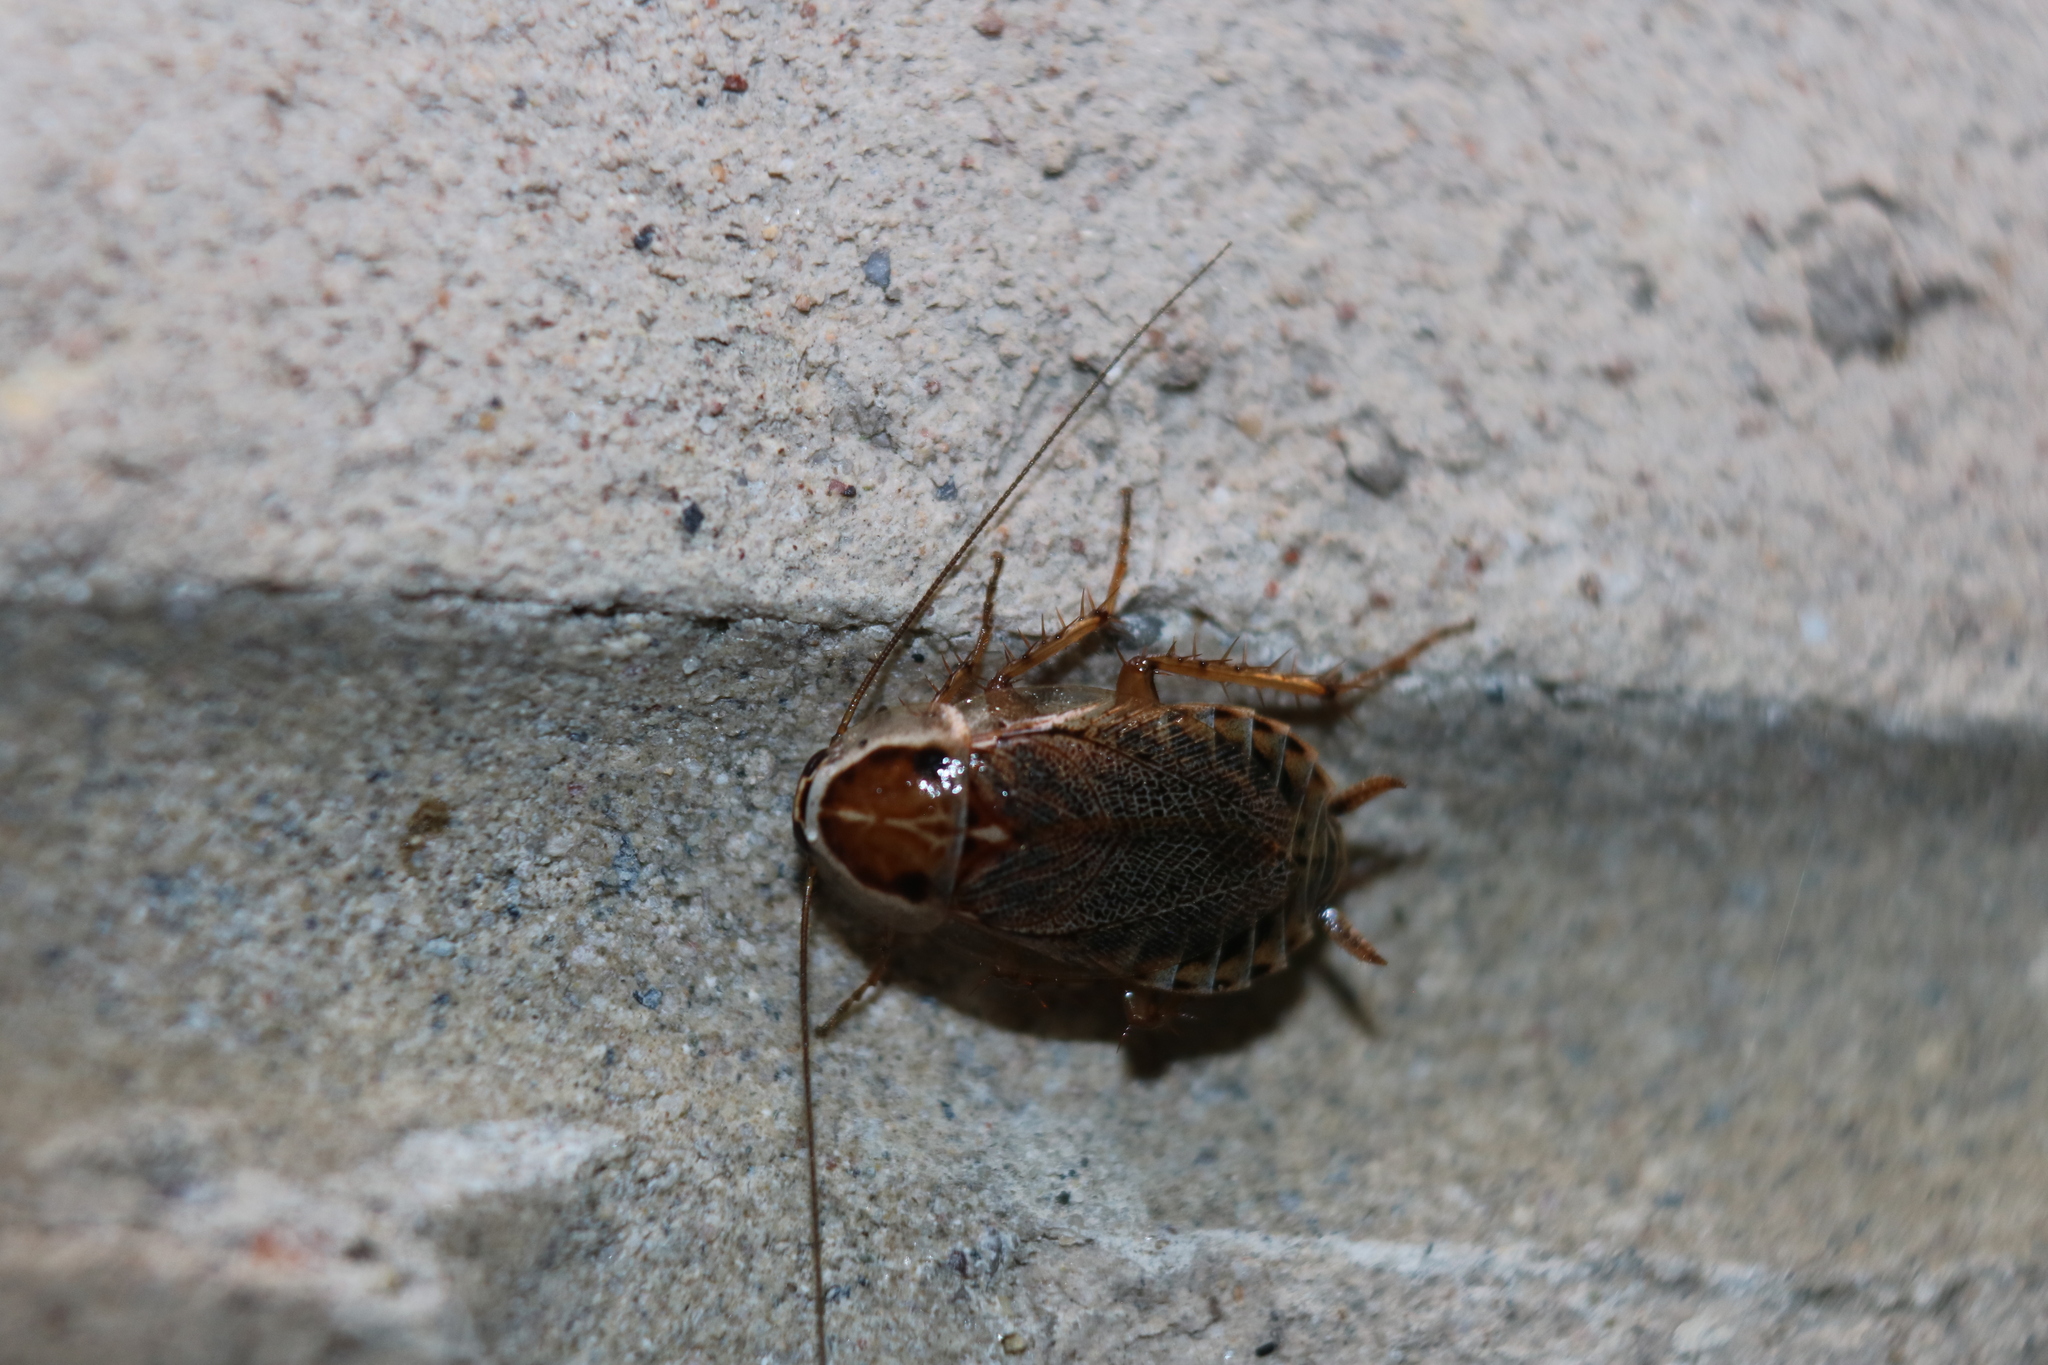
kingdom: Animalia
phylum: Arthropoda
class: Insecta
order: Blattodea
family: Ectobiidae
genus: Ectobius
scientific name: Ectobius lucidus
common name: Wood cockroach
